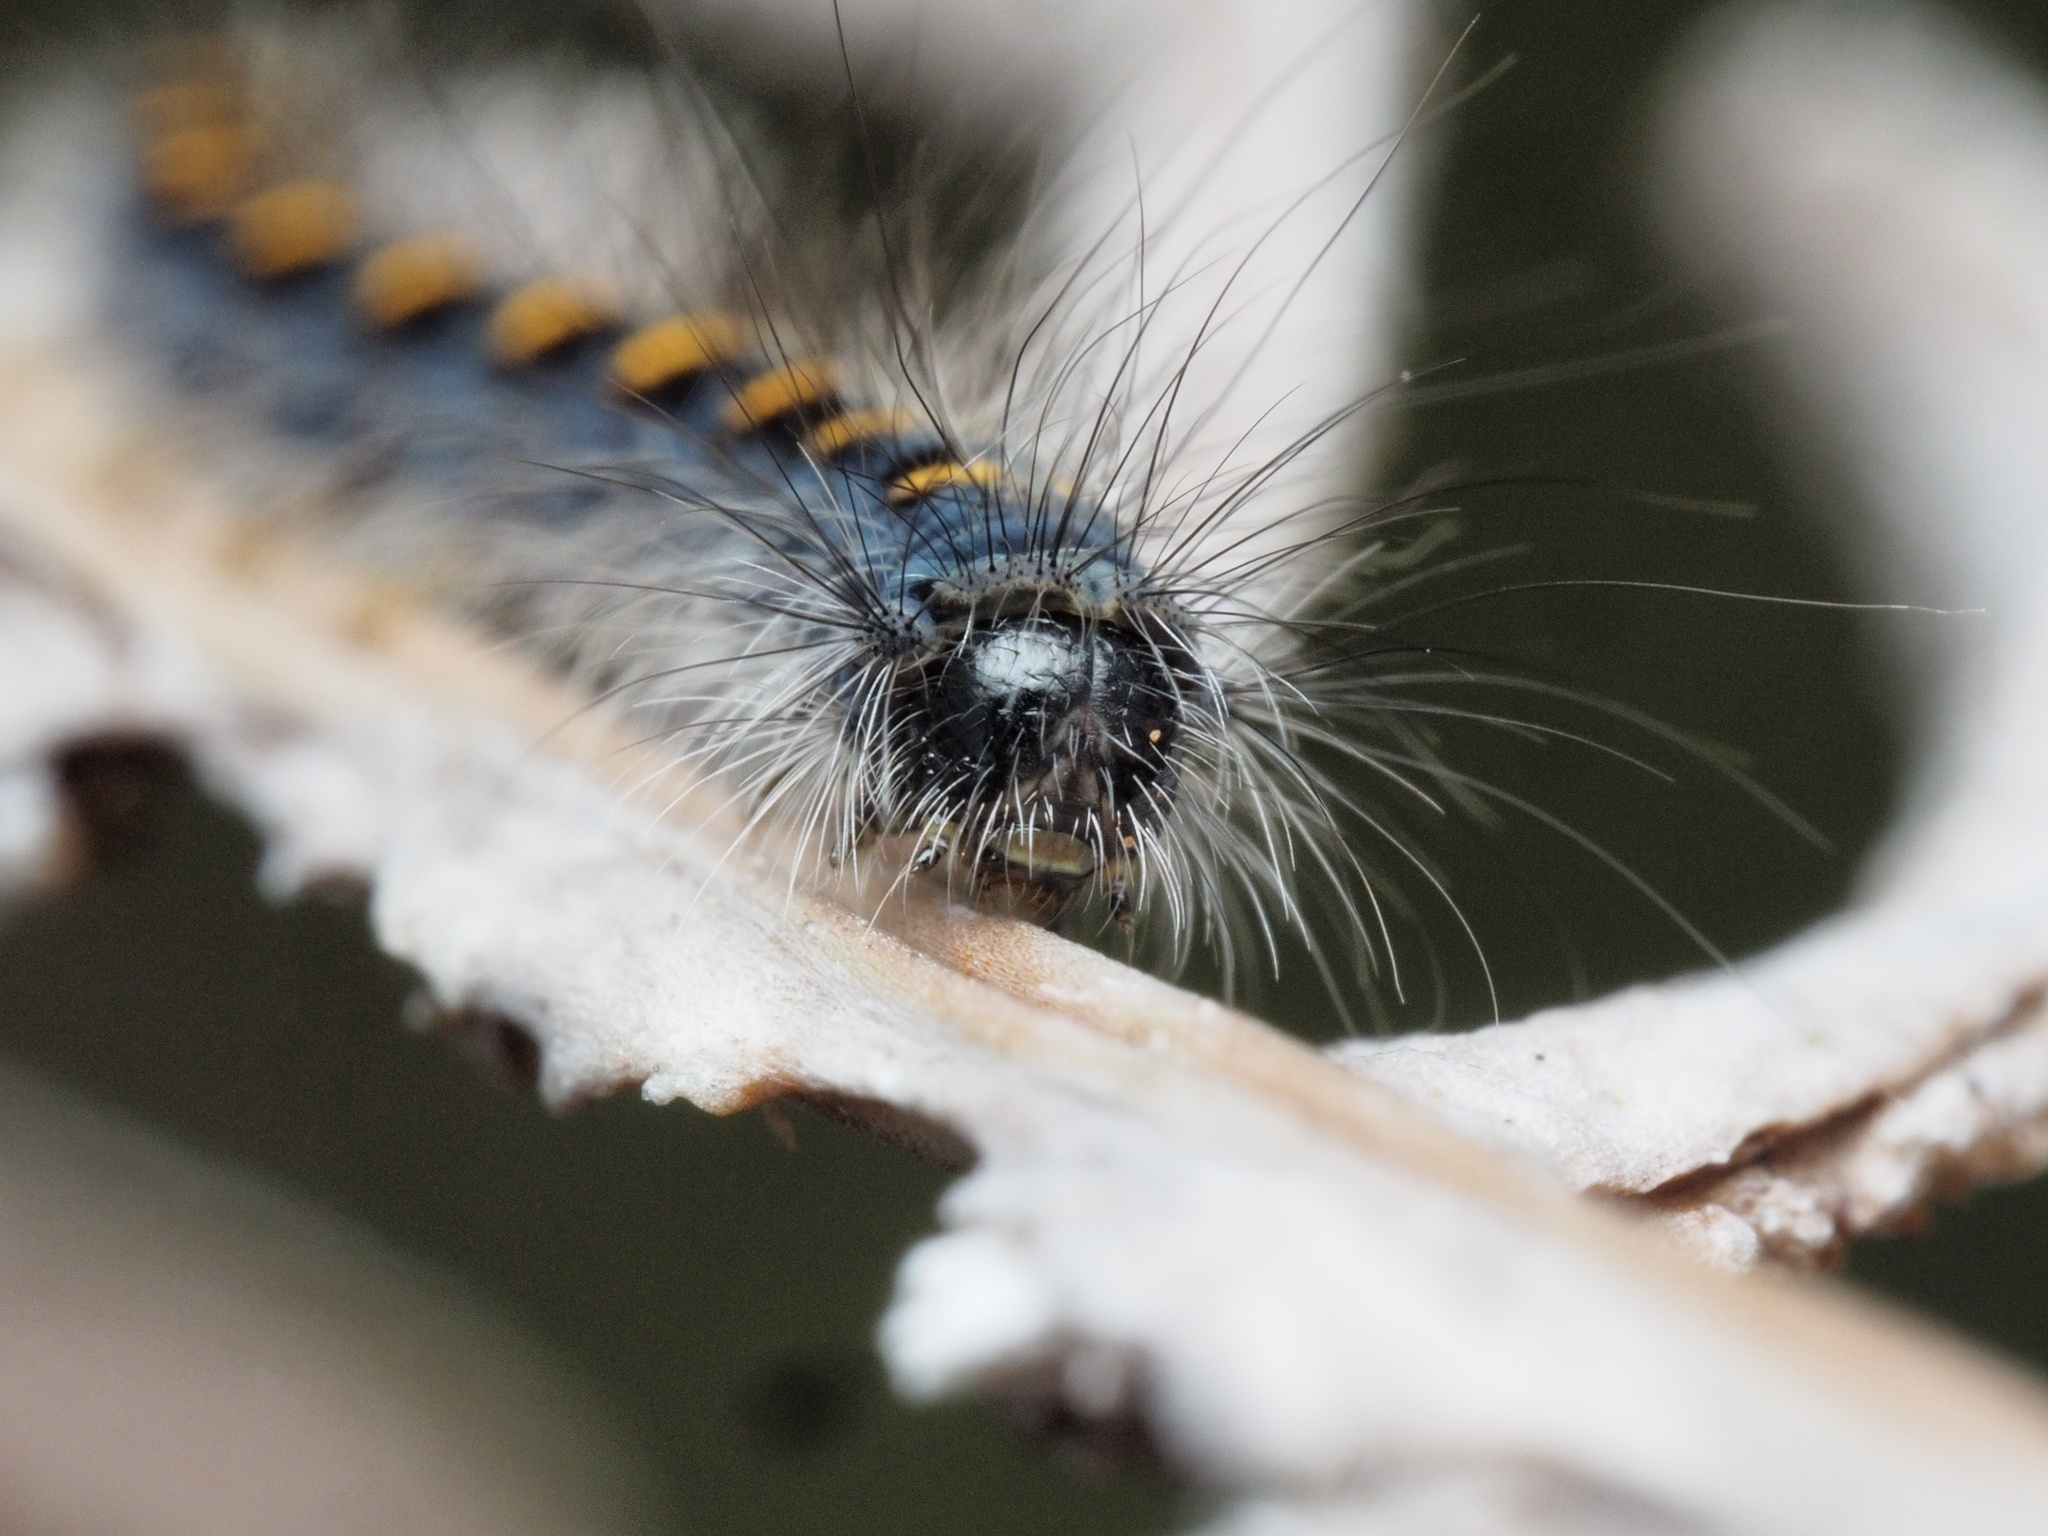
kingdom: Animalia
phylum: Arthropoda
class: Insecta
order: Lepidoptera
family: Lasiocampidae
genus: Lasiocampa
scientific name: Lasiocampa quercus
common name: Oak eggar
